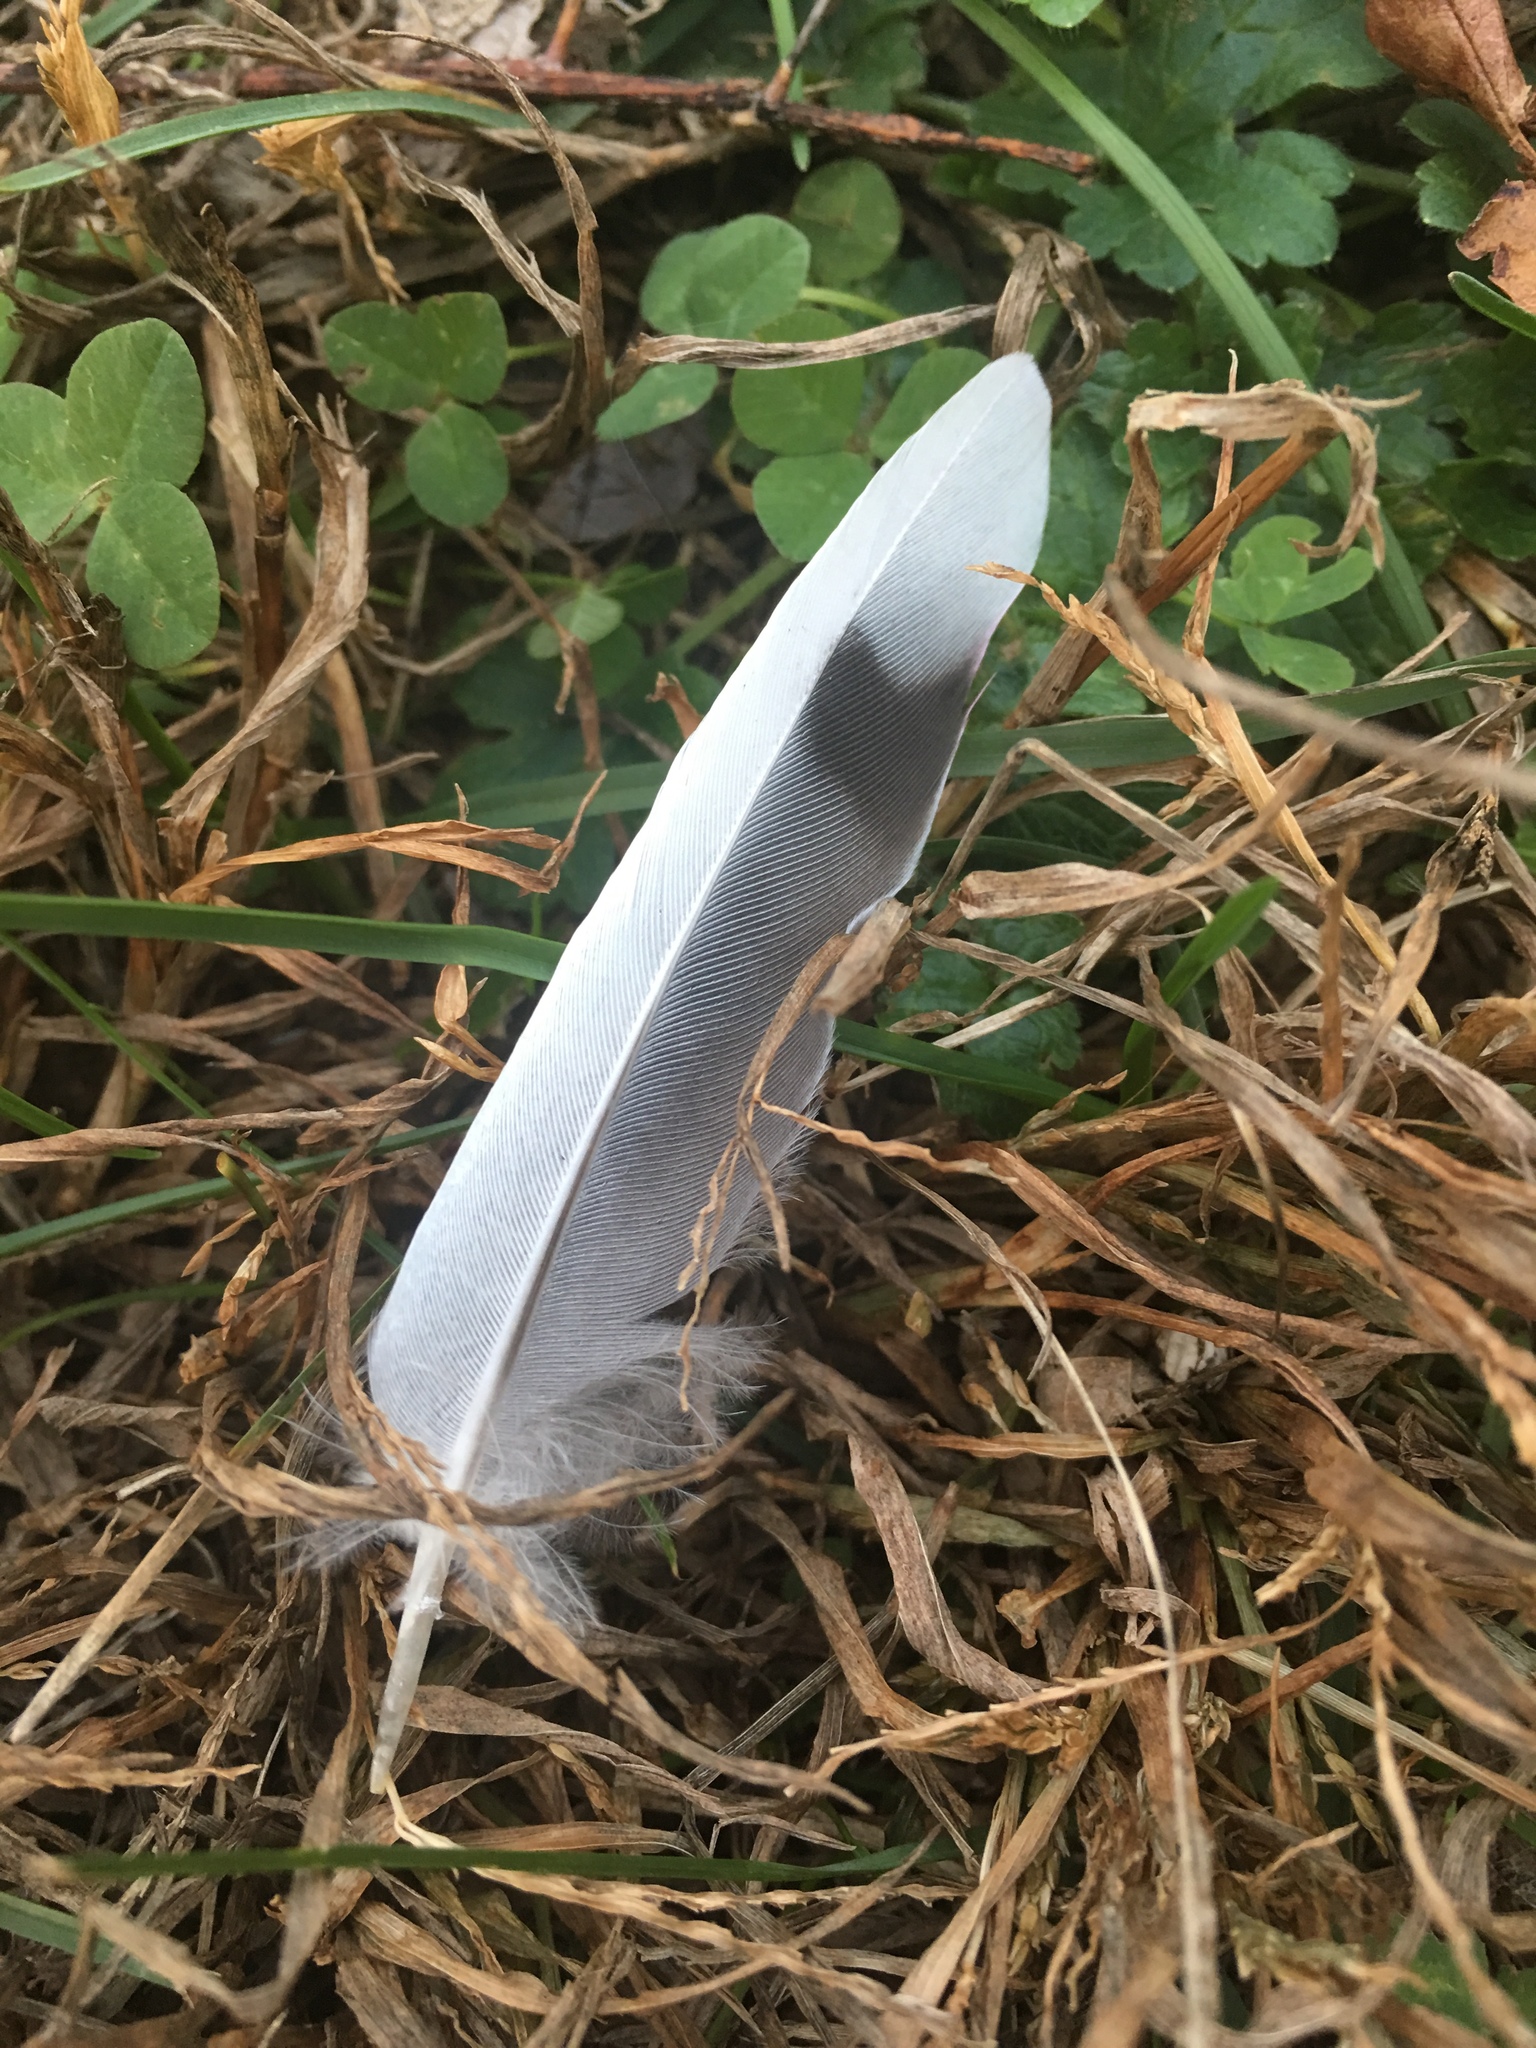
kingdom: Animalia
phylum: Chordata
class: Aves
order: Columbiformes
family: Columbidae
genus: Zenaida
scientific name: Zenaida macroura
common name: Mourning dove
